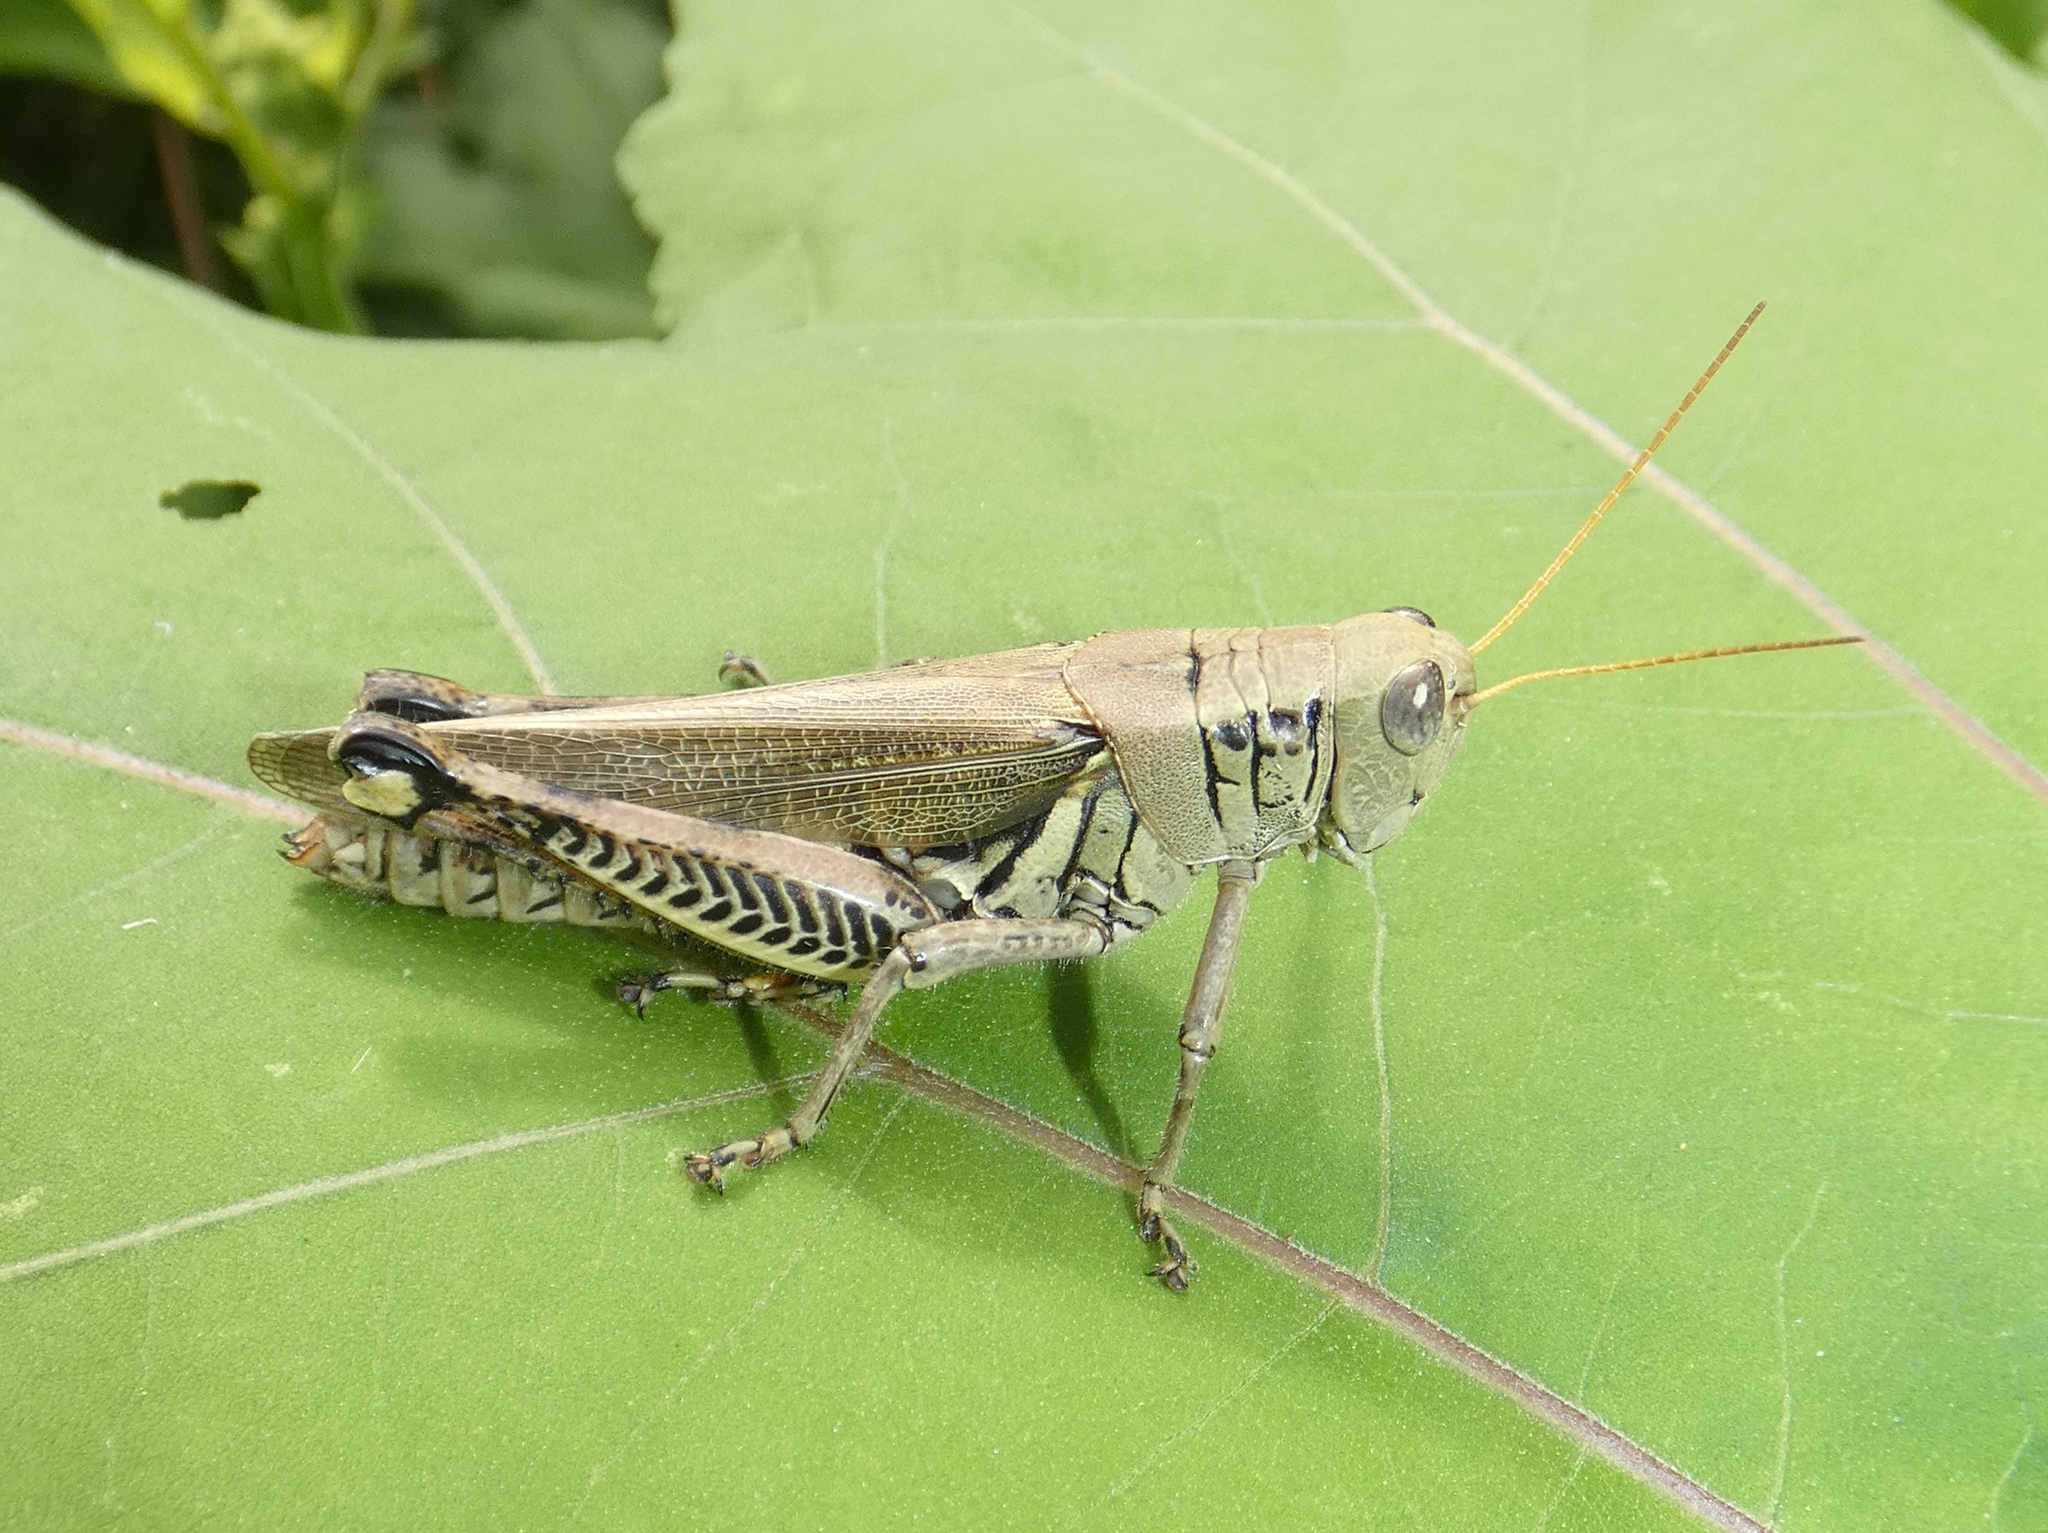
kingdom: Animalia
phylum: Arthropoda
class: Insecta
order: Orthoptera
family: Acrididae
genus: Melanoplus
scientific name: Melanoplus differentialis
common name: Differential grasshopper
